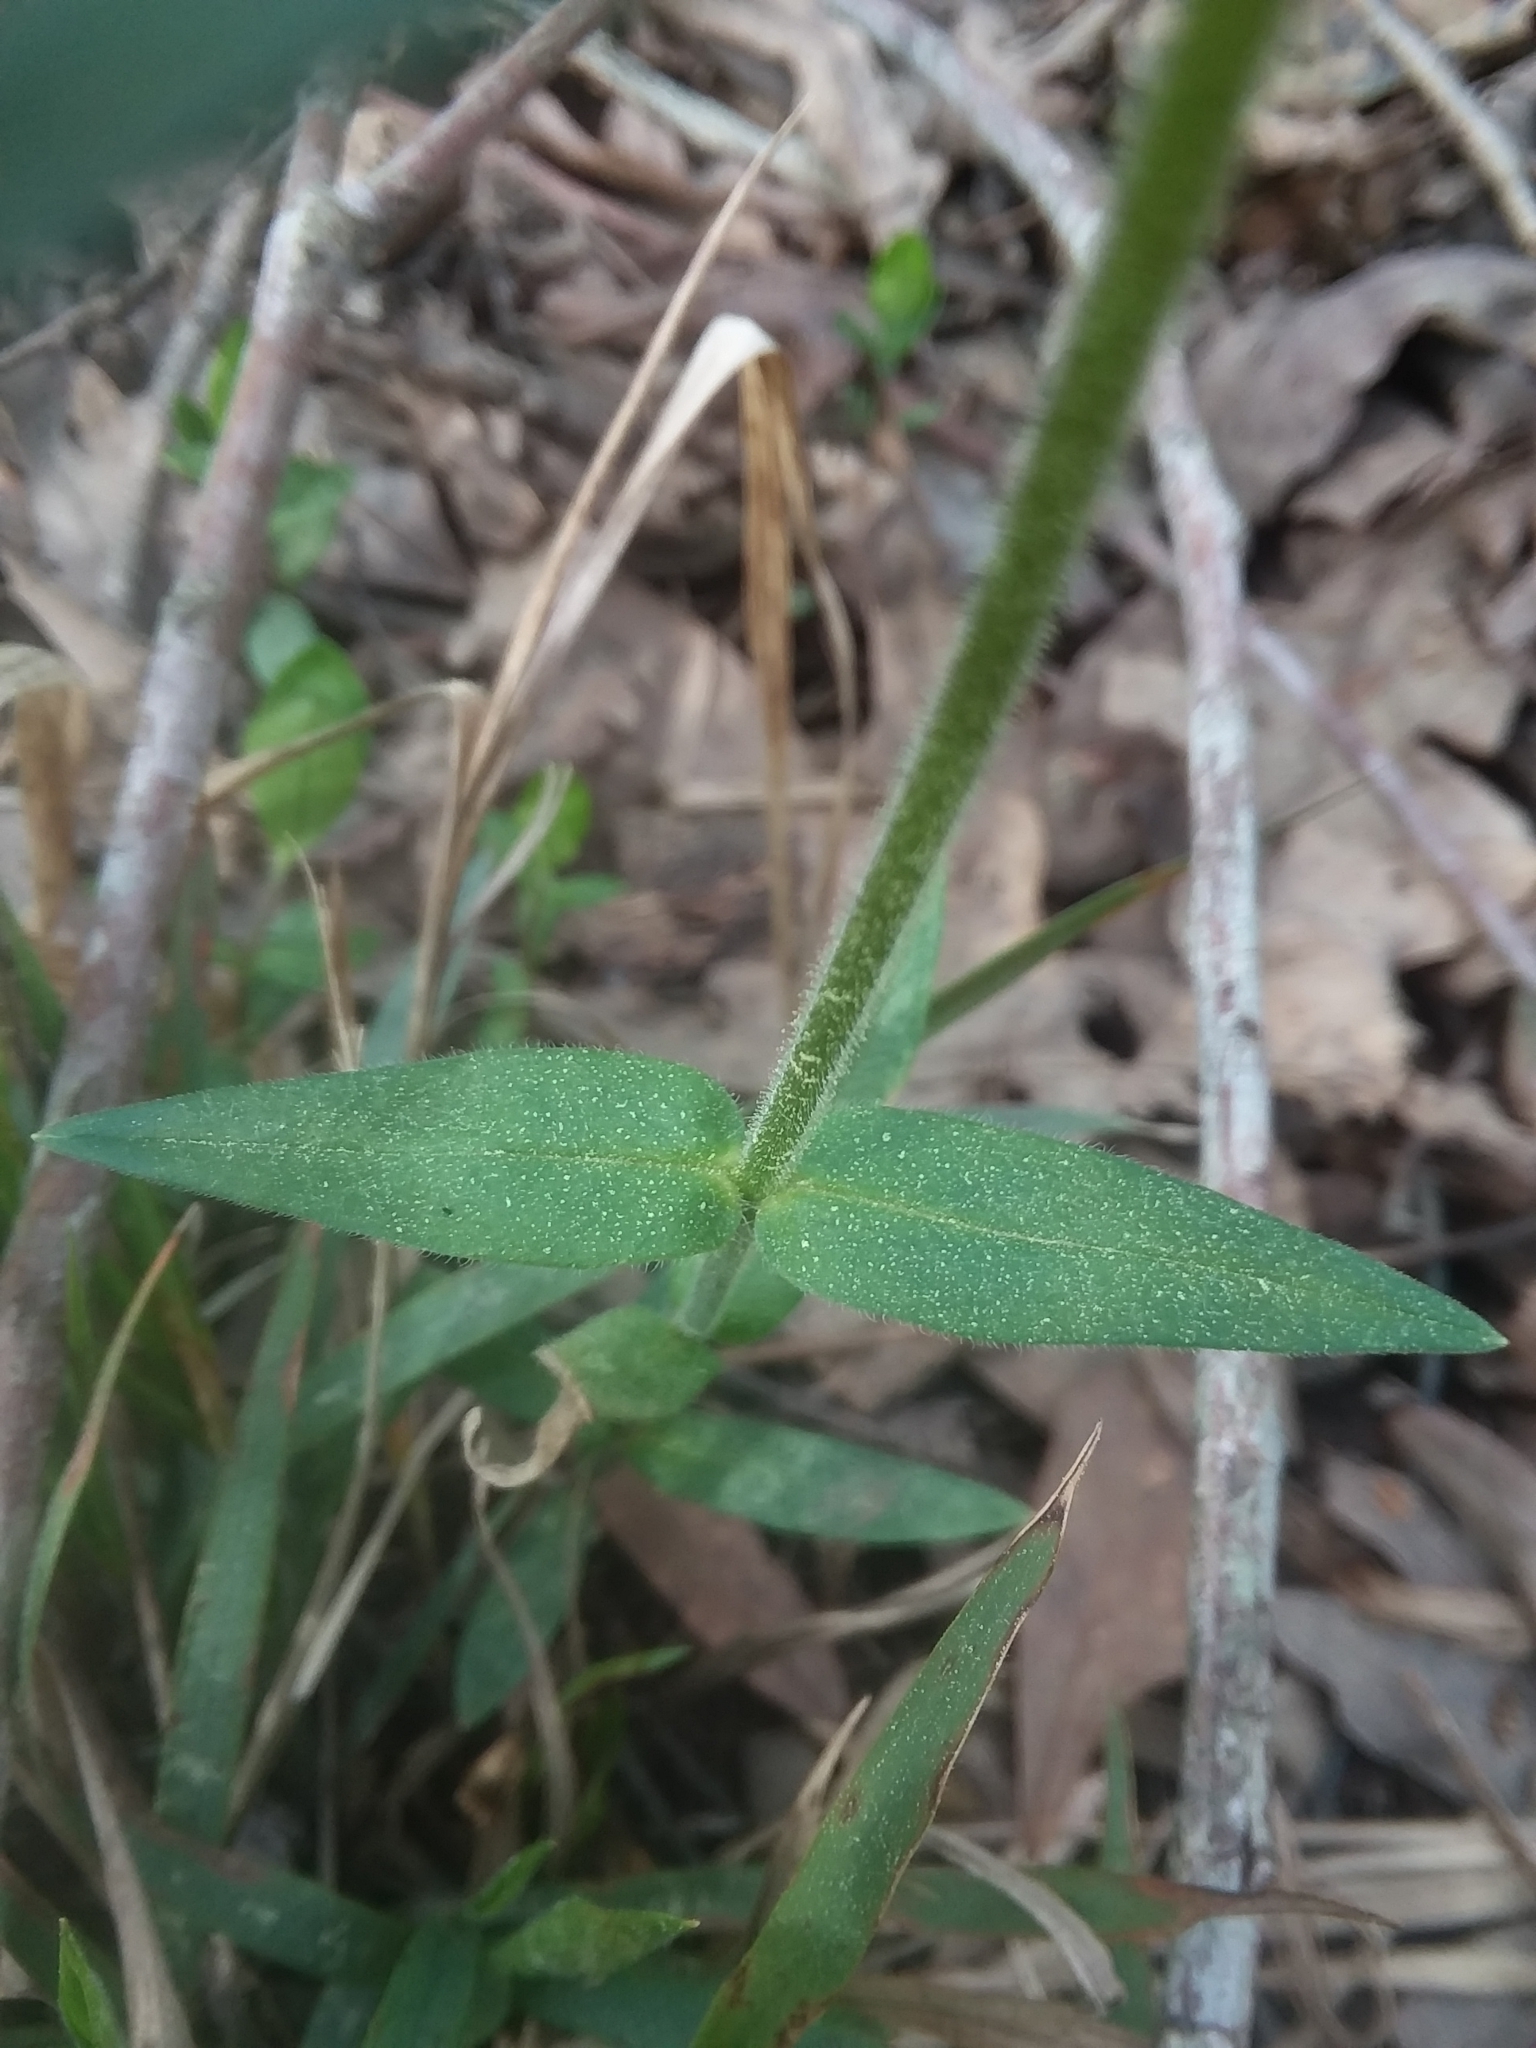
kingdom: Plantae
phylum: Tracheophyta
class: Magnoliopsida
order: Ericales
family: Polemoniaceae
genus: Phlox
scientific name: Phlox divaricata
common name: Blue phlox
